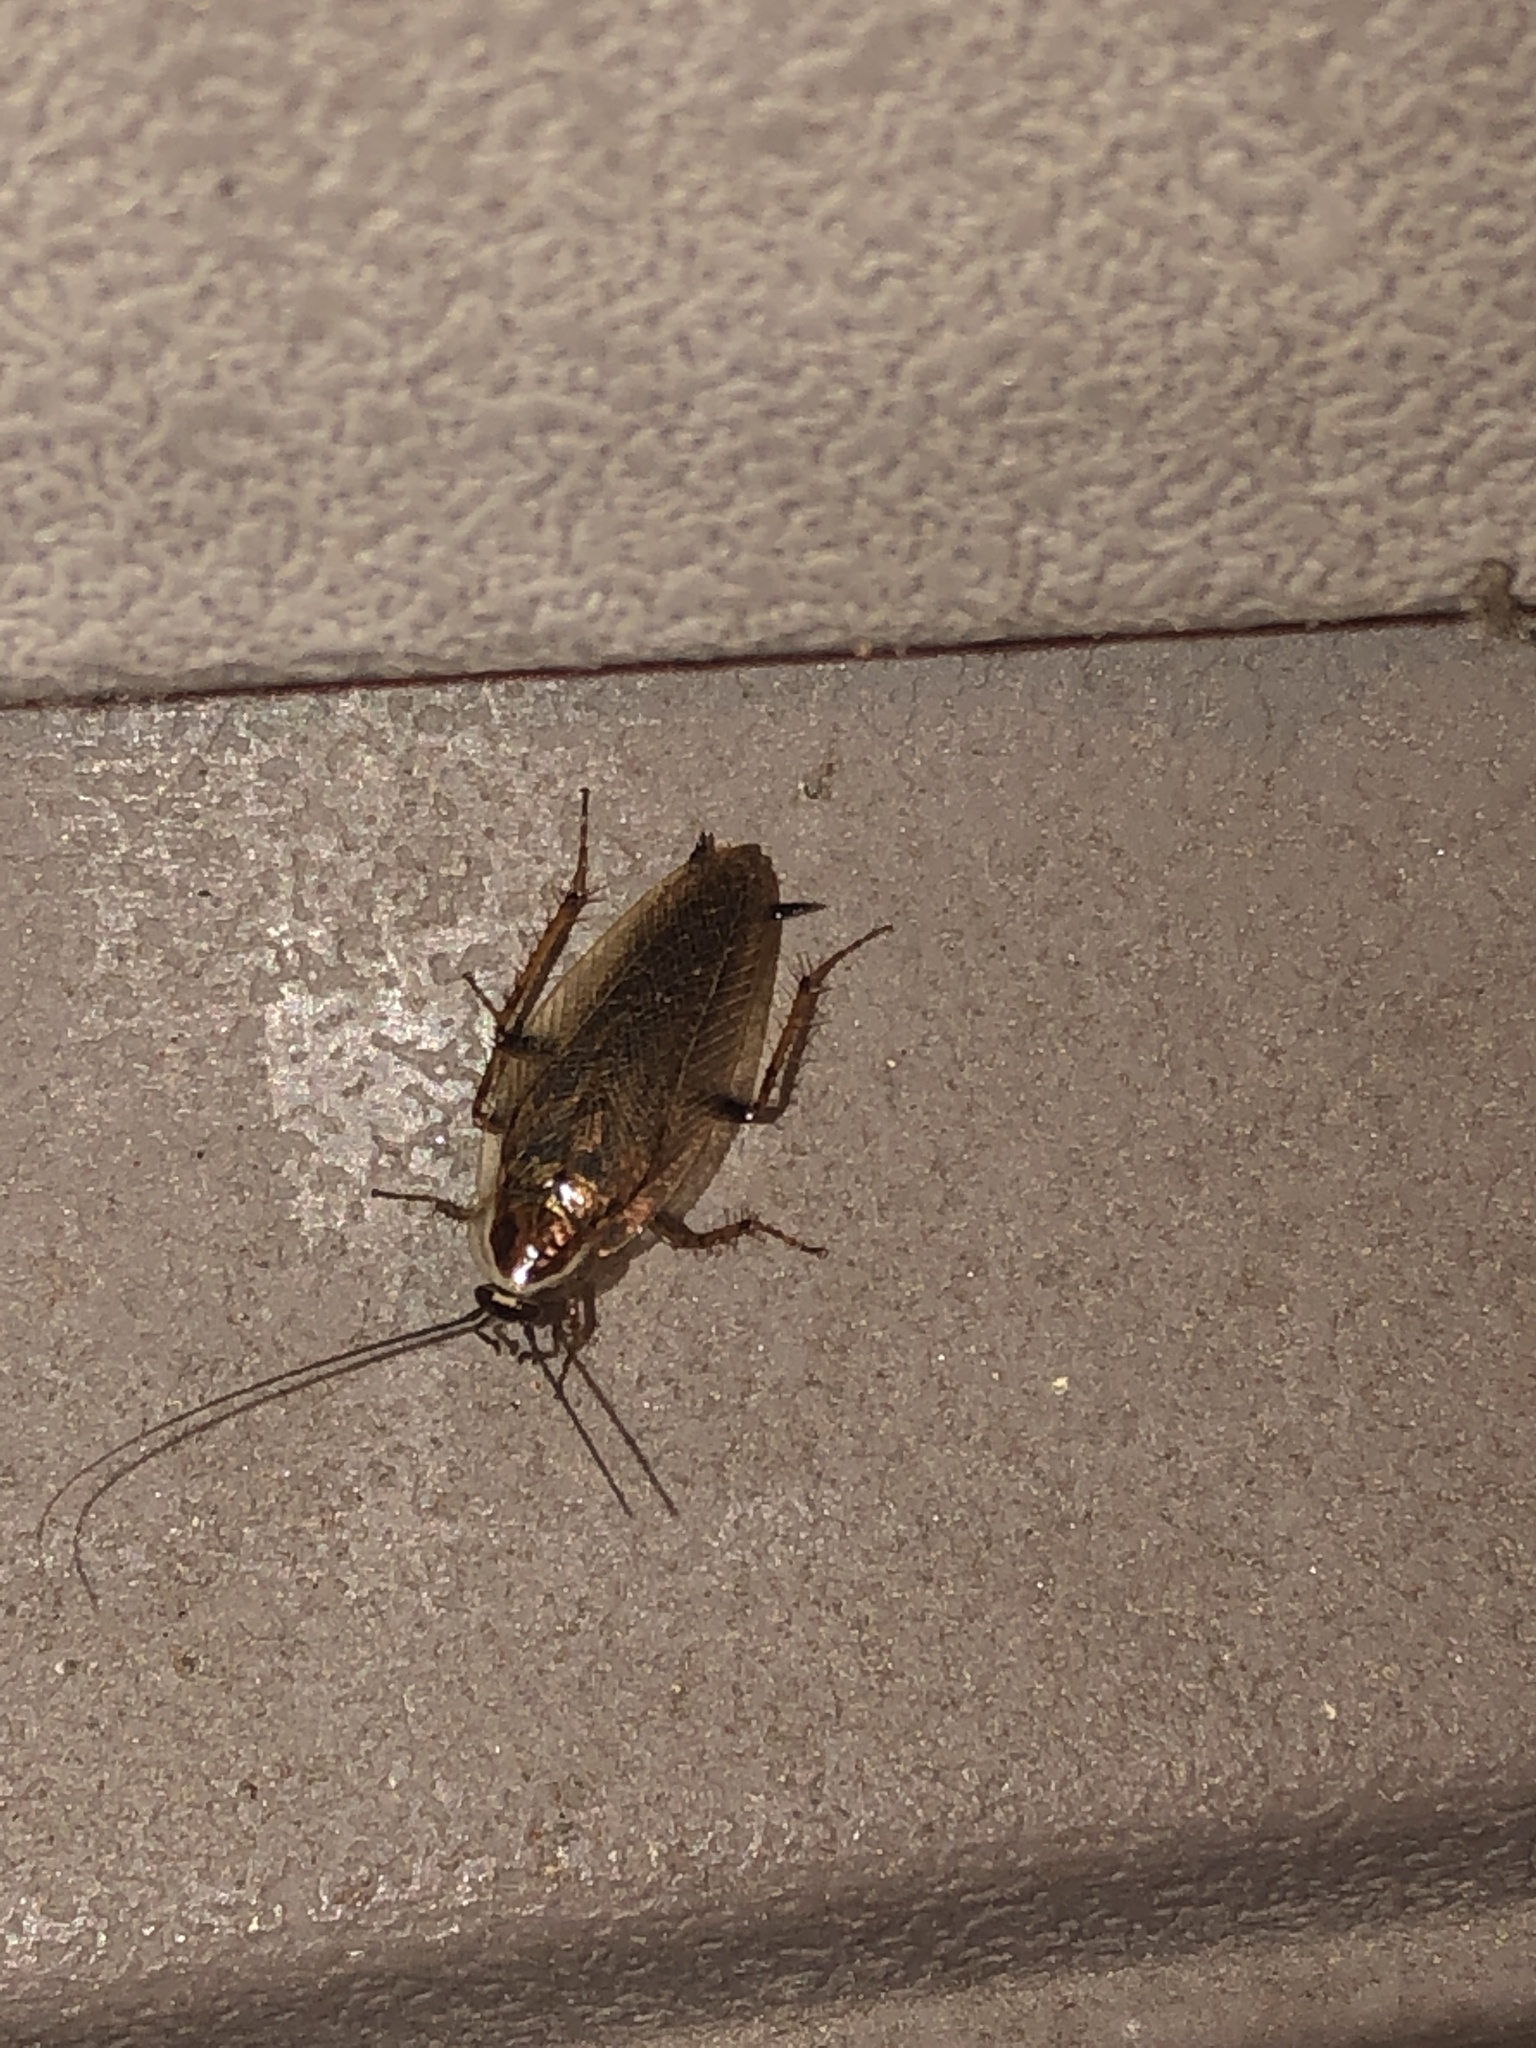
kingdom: Animalia
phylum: Arthropoda
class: Insecta
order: Blattodea
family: Ectobiidae
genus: Ectobius
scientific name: Ectobius lucidus
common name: Wood cockroach
